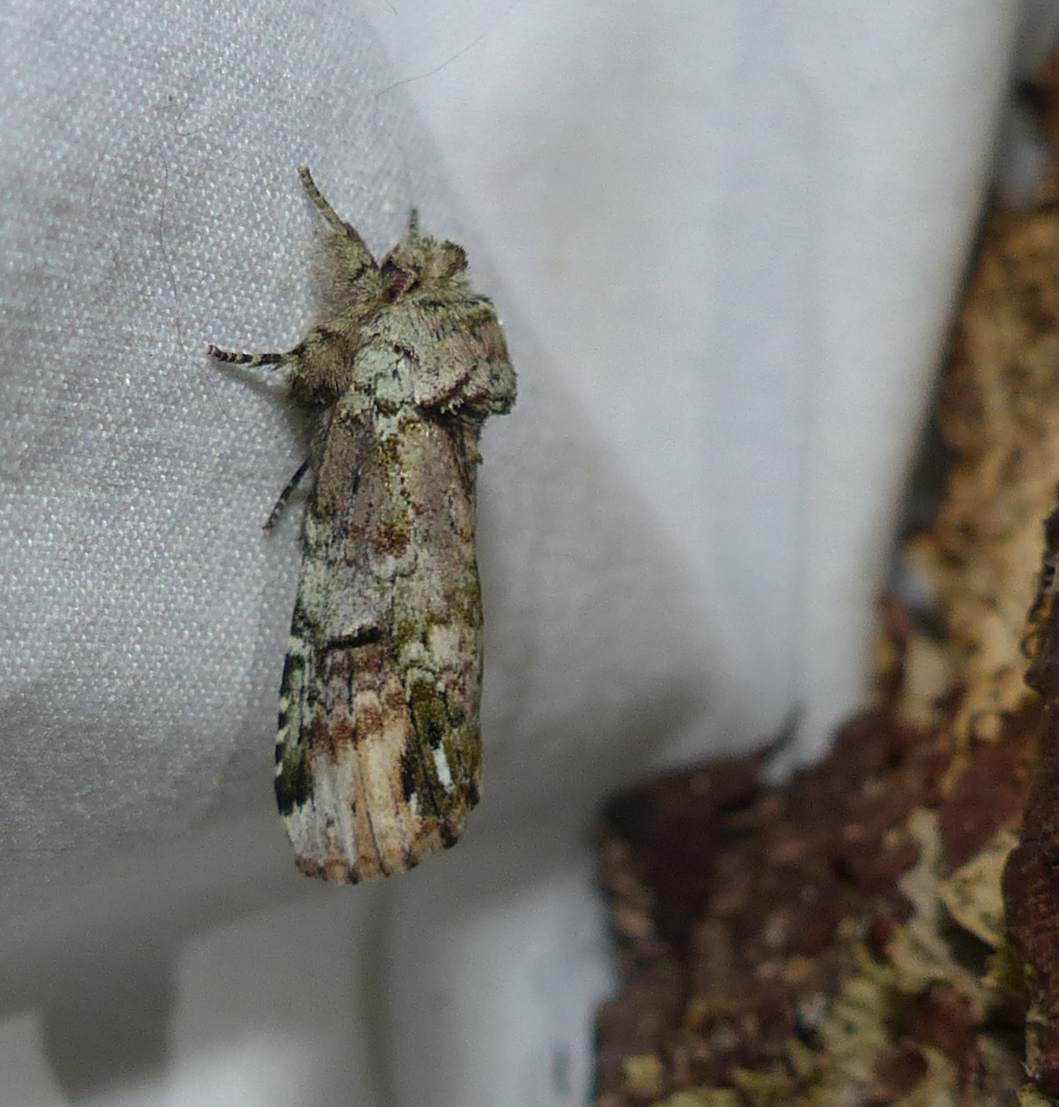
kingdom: Animalia
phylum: Arthropoda
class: Insecta
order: Lepidoptera
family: Notodontidae
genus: Schizura
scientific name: Schizura
